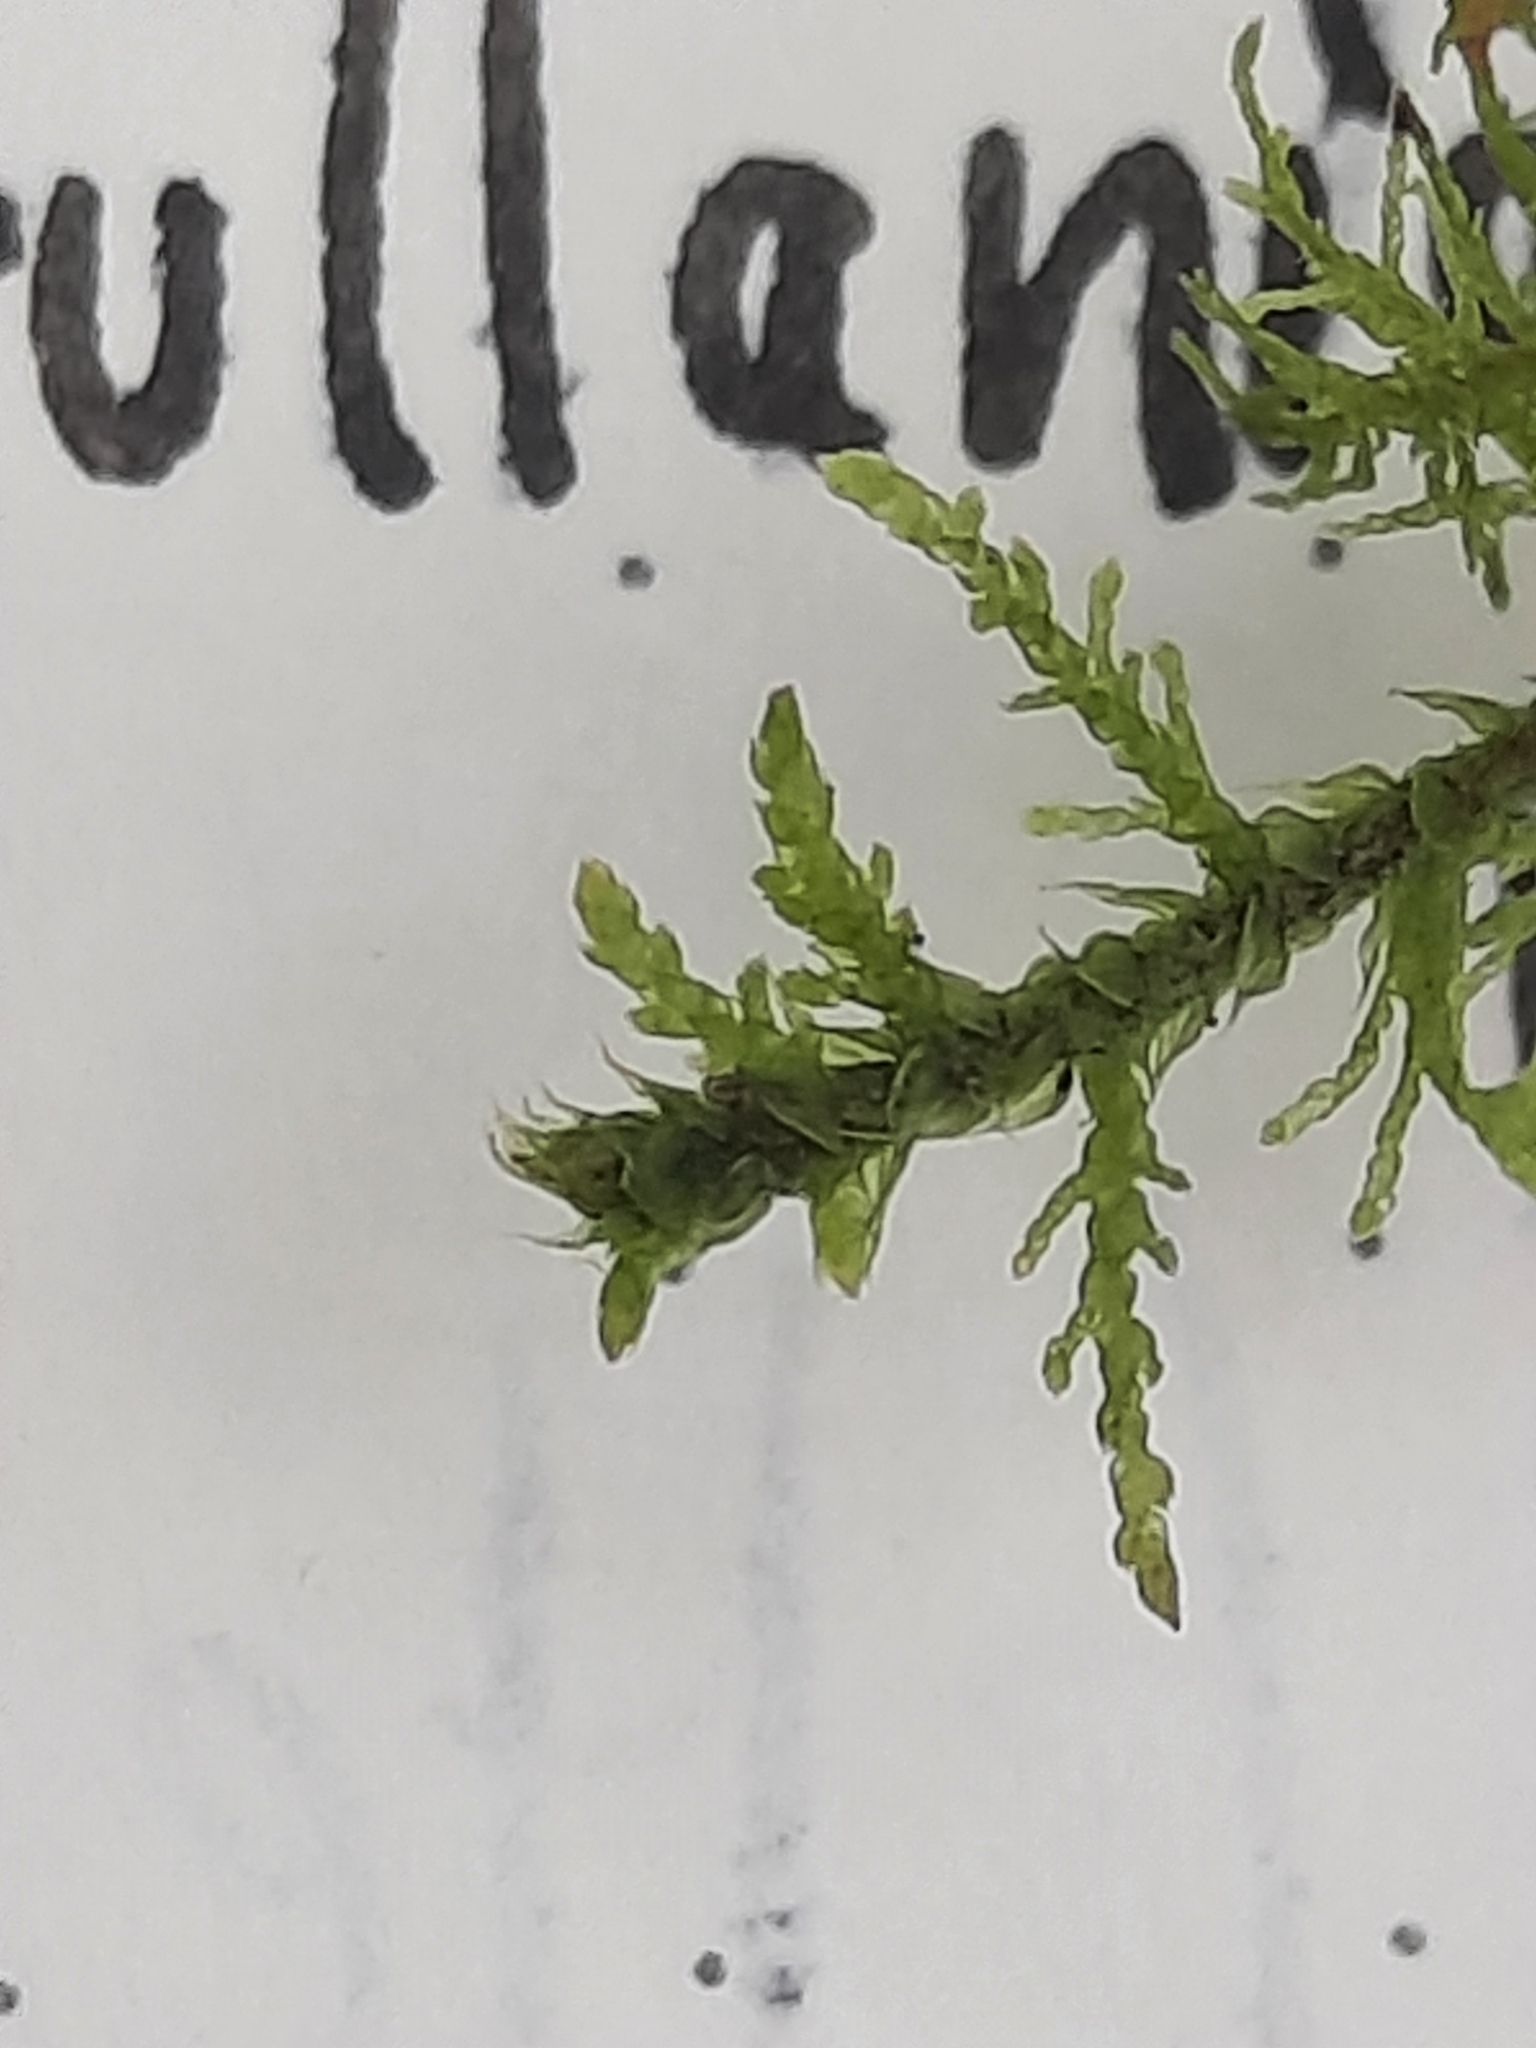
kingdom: Plantae
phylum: Bryophyta
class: Bryopsida
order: Hypnales
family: Thuidiaceae
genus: Thuidium
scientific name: Thuidium delicatulum
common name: Delicate fern moss
